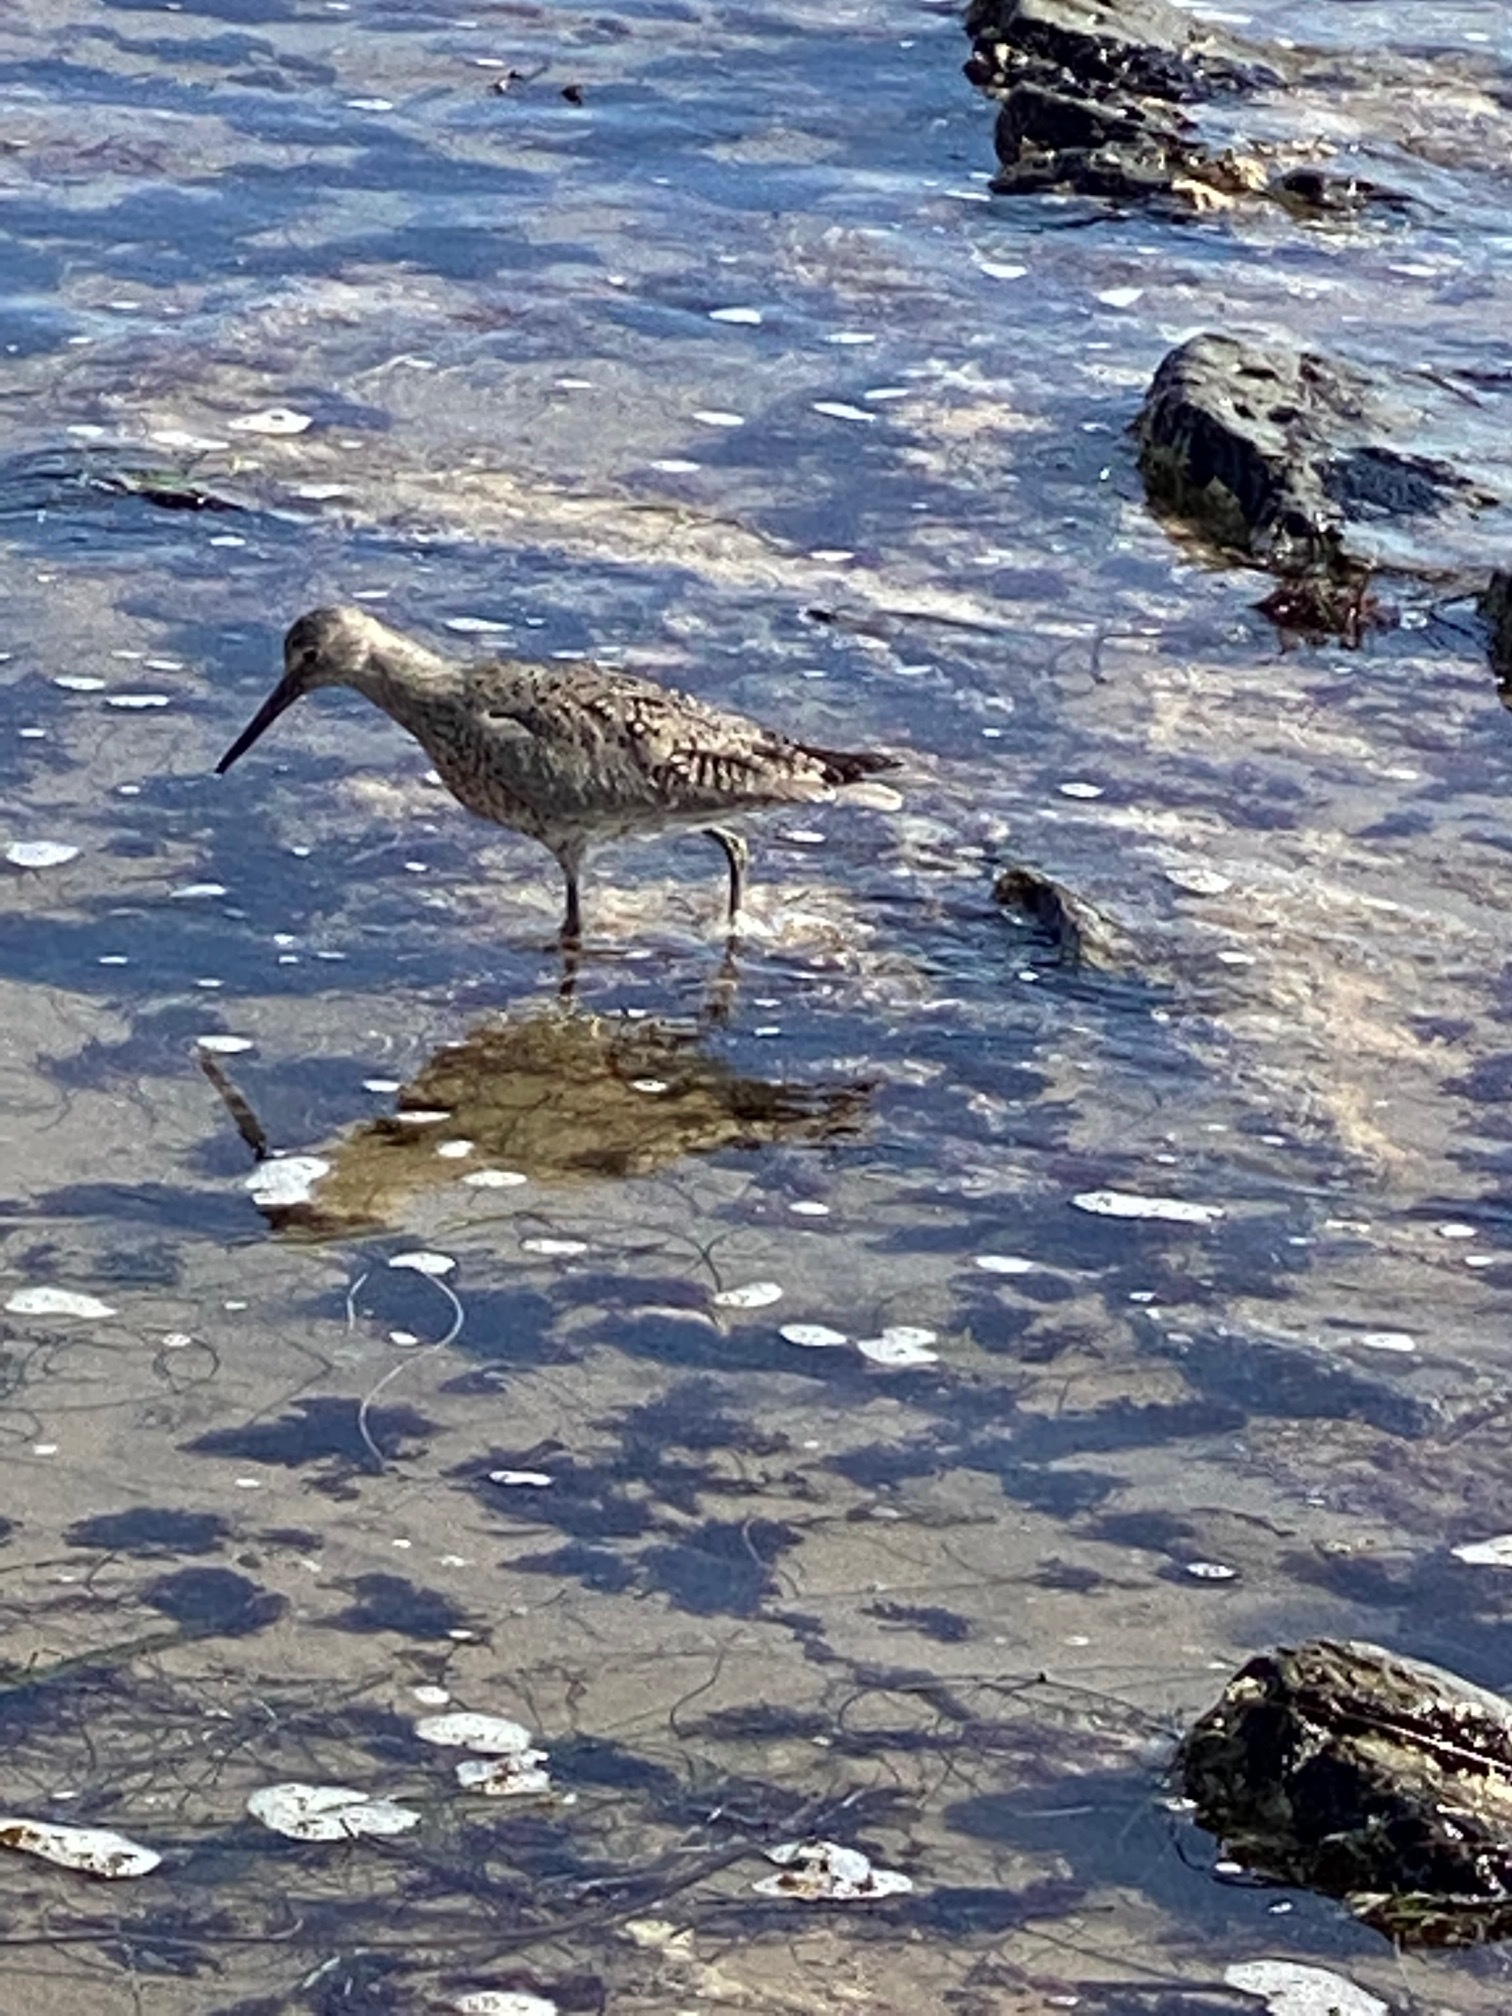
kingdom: Animalia
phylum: Chordata
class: Aves
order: Charadriiformes
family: Scolopacidae
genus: Tringa
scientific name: Tringa semipalmata
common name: Willet
